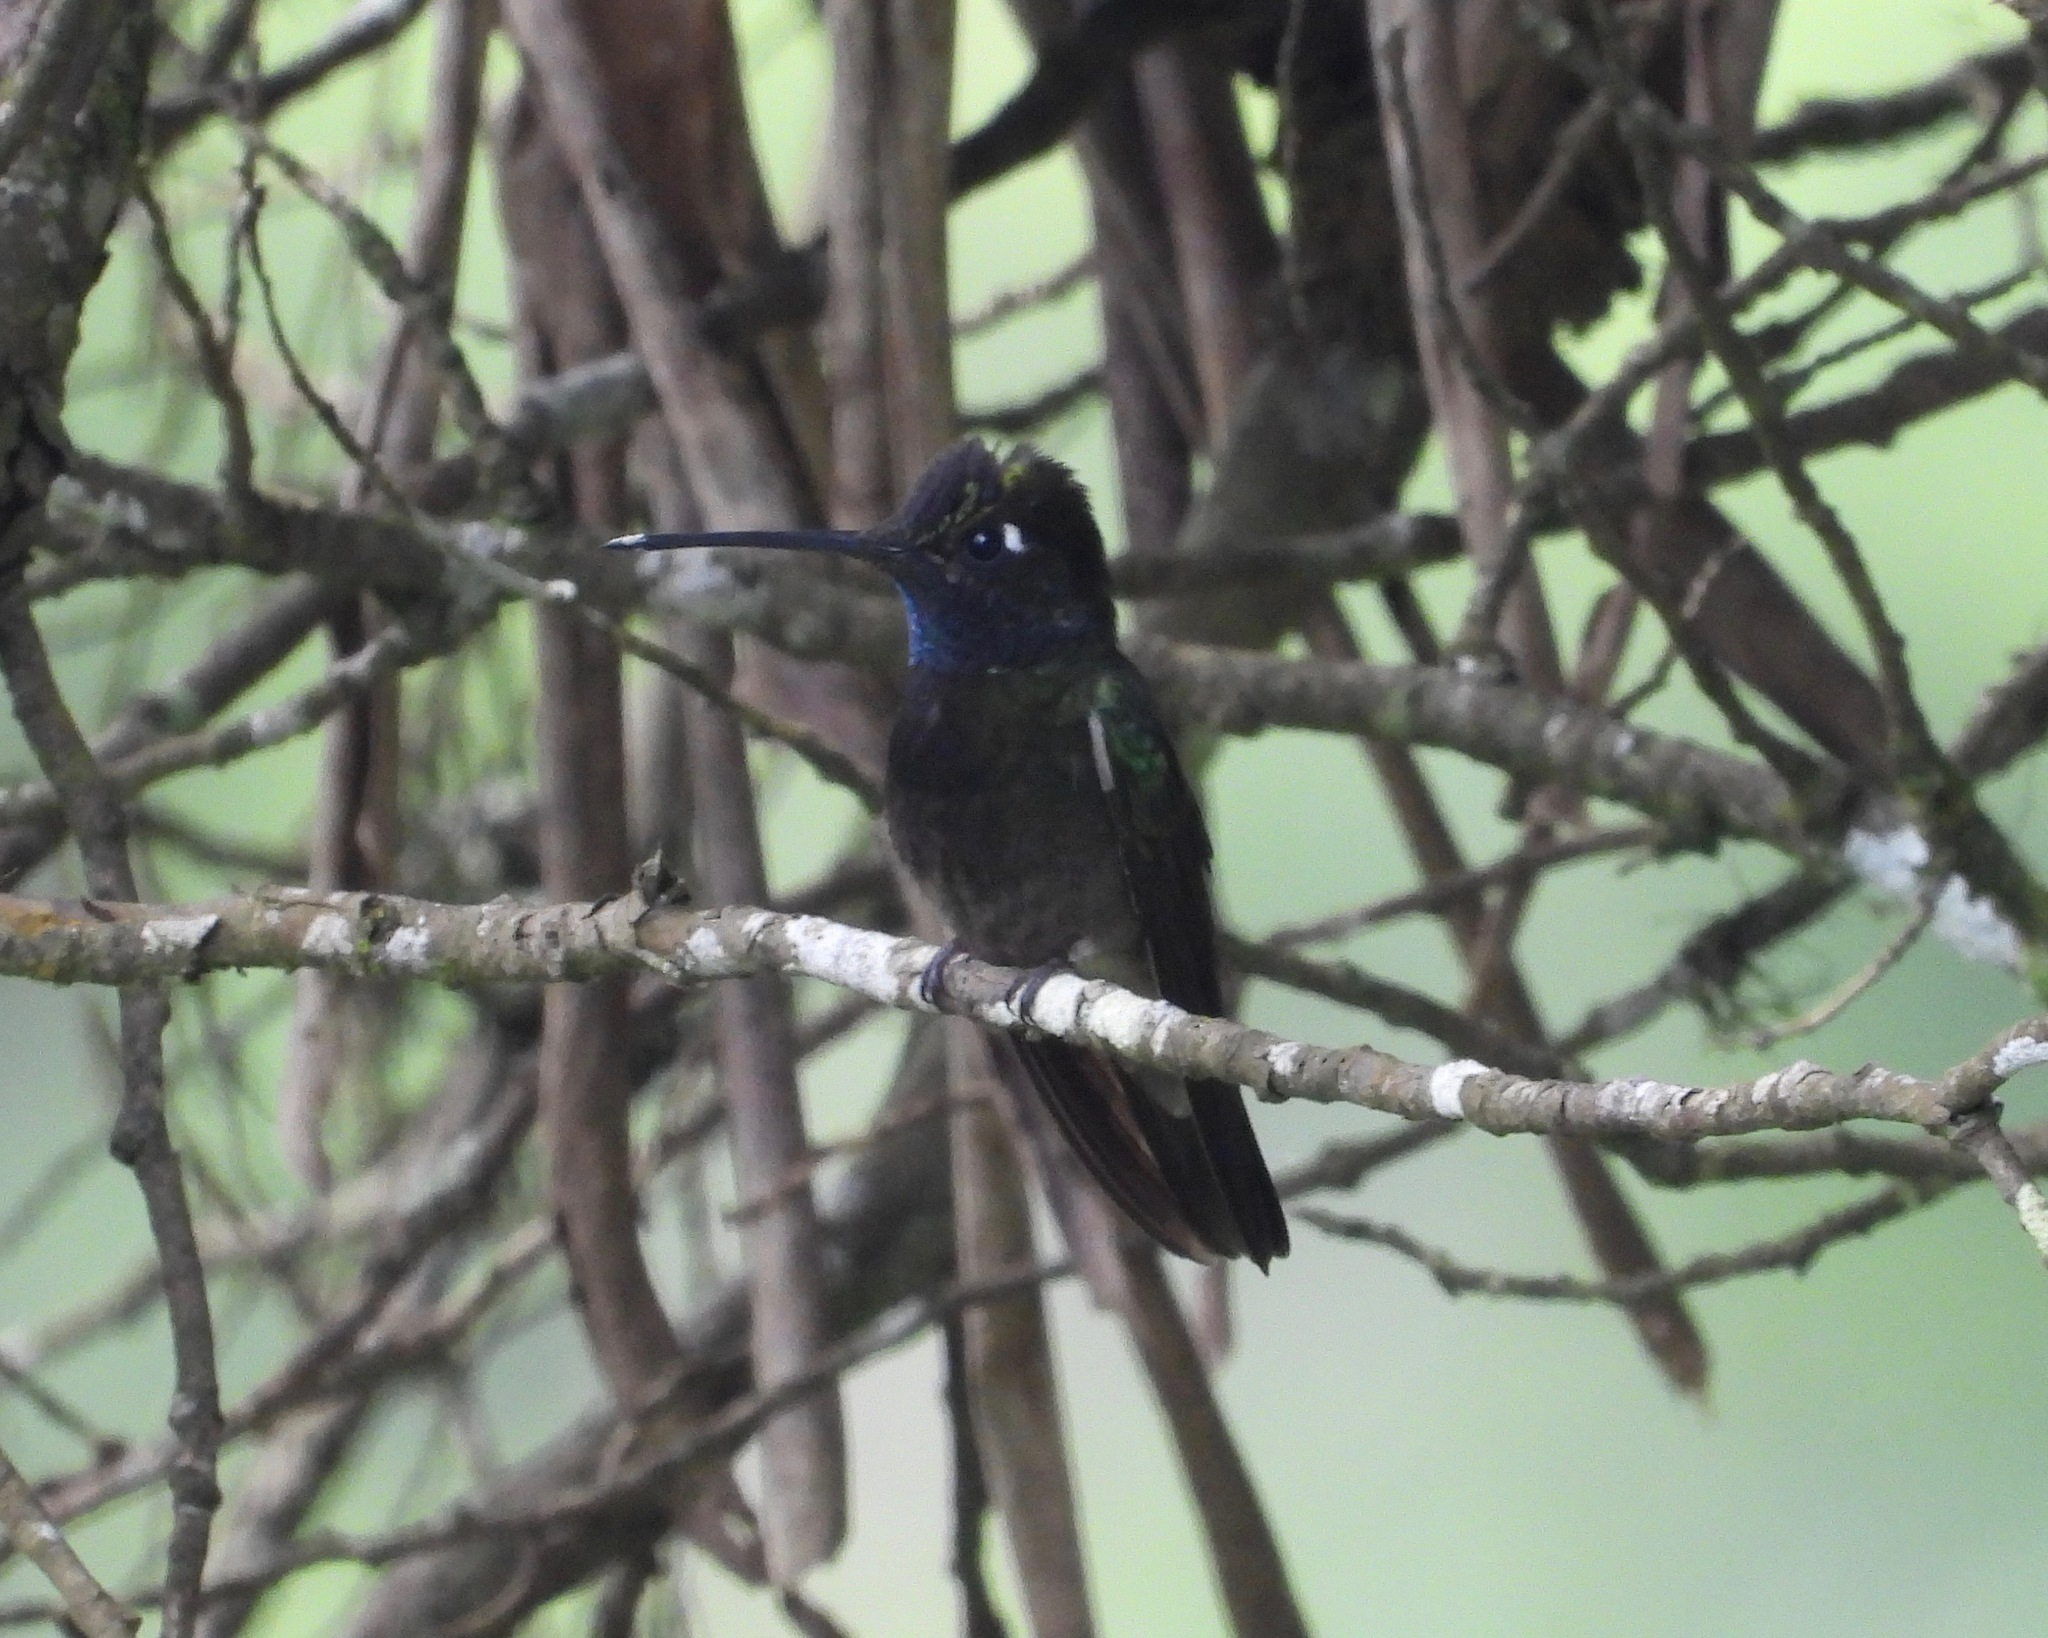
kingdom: Animalia
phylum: Chordata
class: Aves
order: Apodiformes
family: Trochilidae
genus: Eugenes
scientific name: Eugenes fulgens
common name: Magnificent hummingbird
